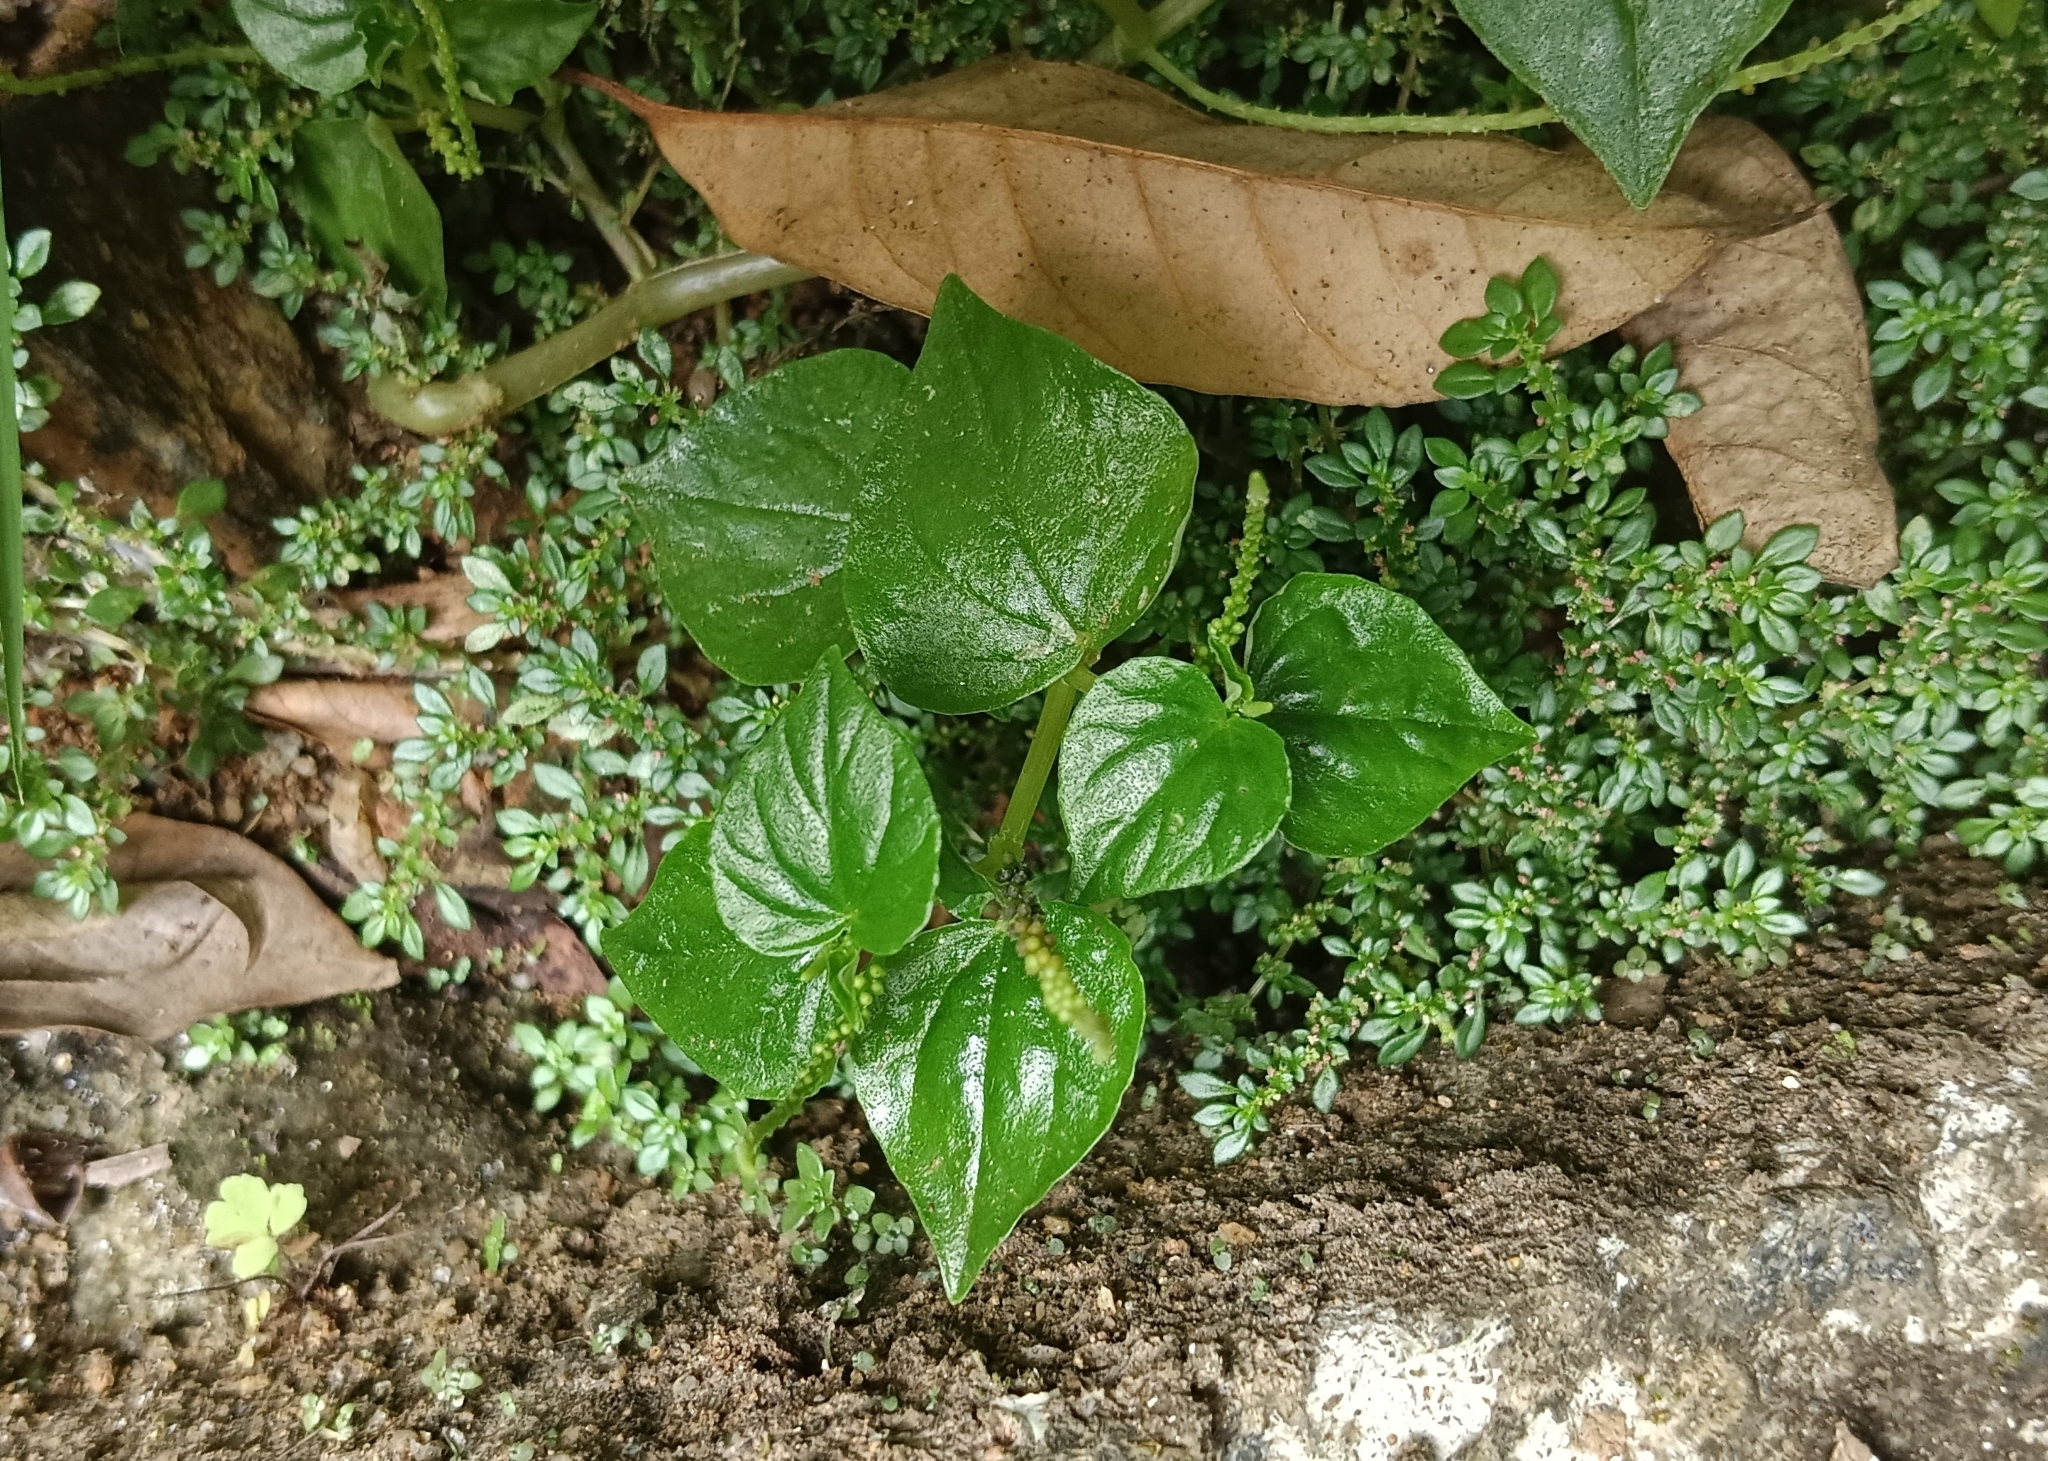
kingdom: Plantae
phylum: Tracheophyta
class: Magnoliopsida
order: Piperales
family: Piperaceae
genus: Peperomia
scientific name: Peperomia pellucida
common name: Man to man
